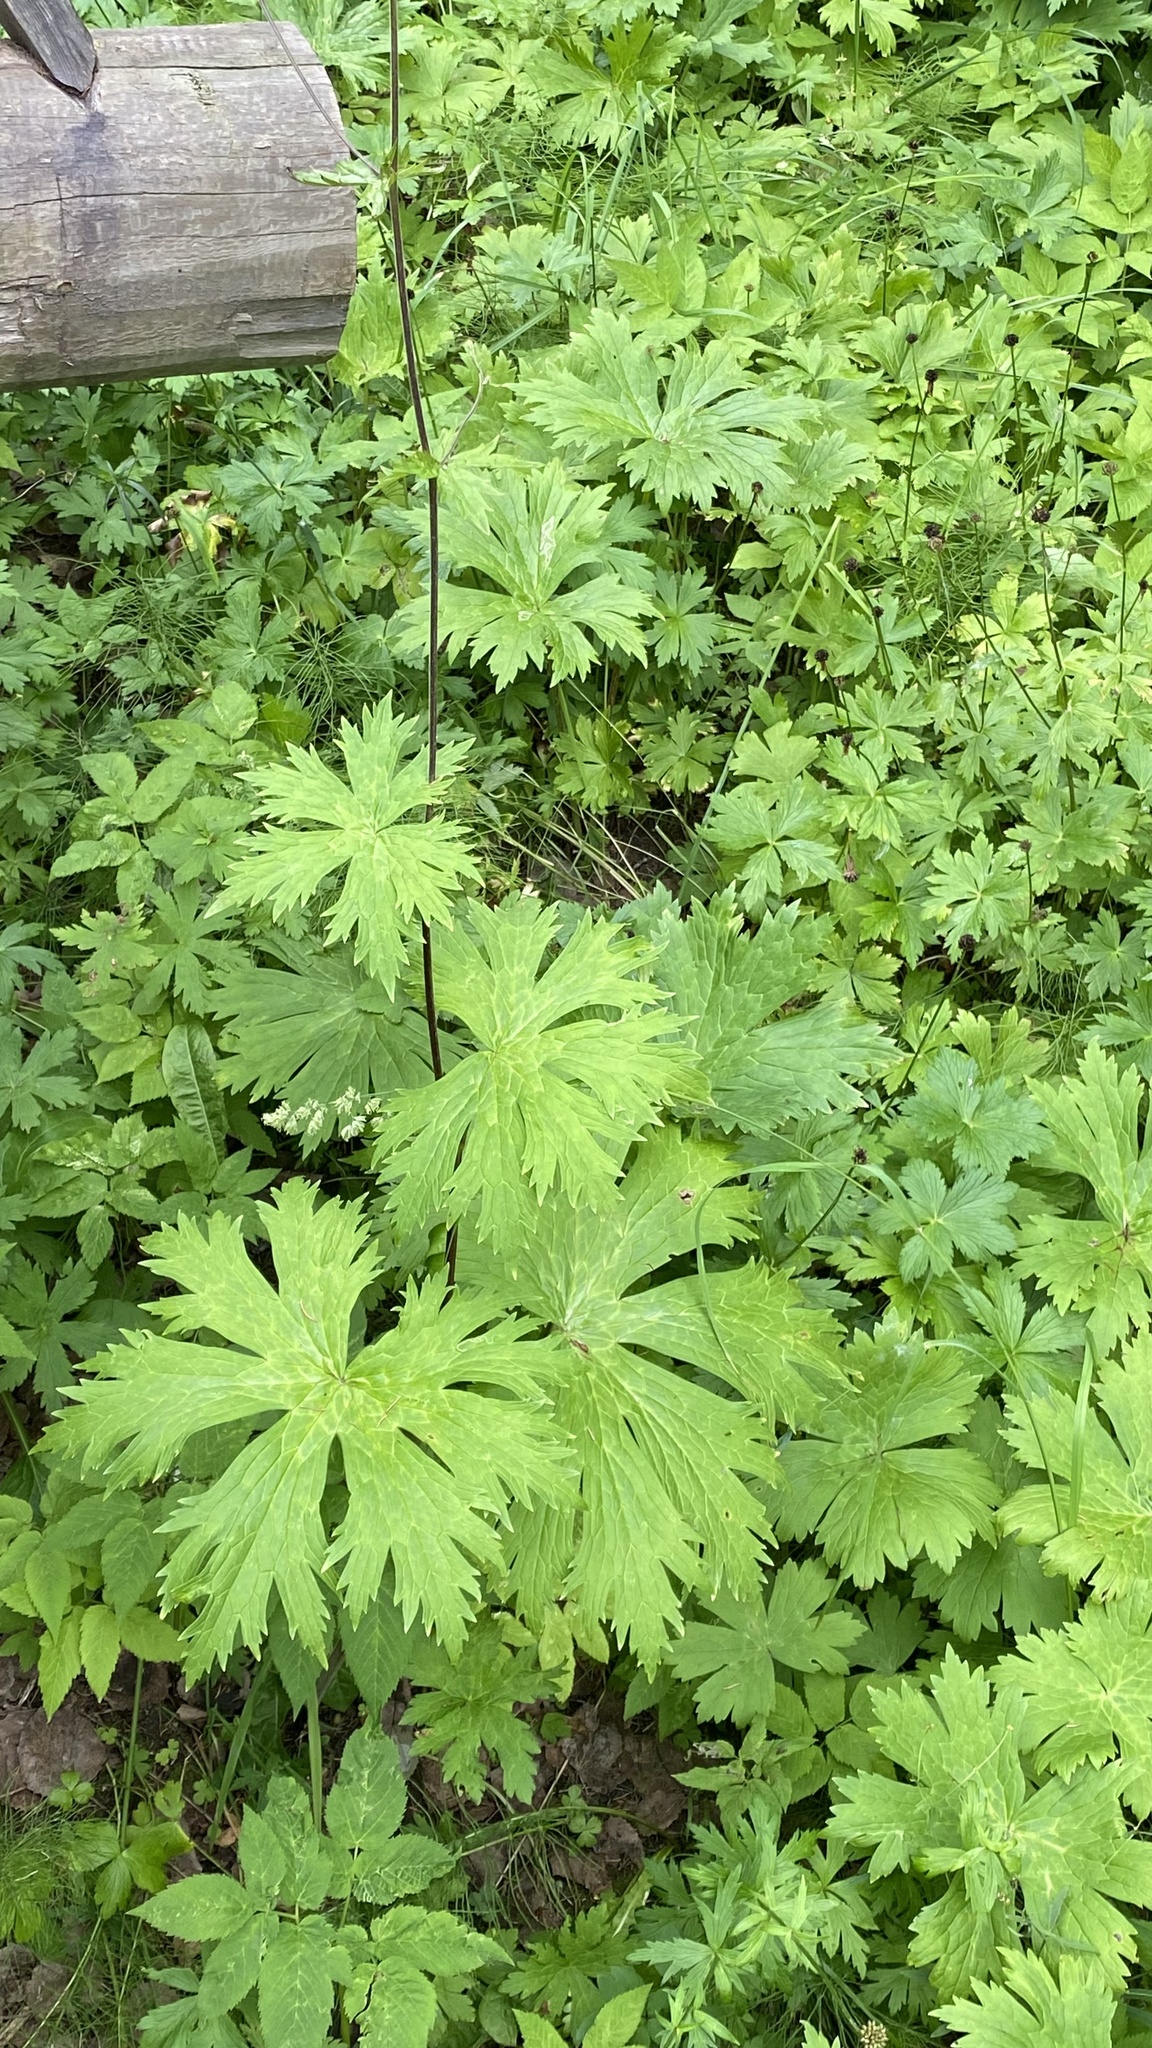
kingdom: Plantae
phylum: Tracheophyta
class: Magnoliopsida
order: Ranunculales
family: Ranunculaceae
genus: Aconitum
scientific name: Aconitum septentrionale
